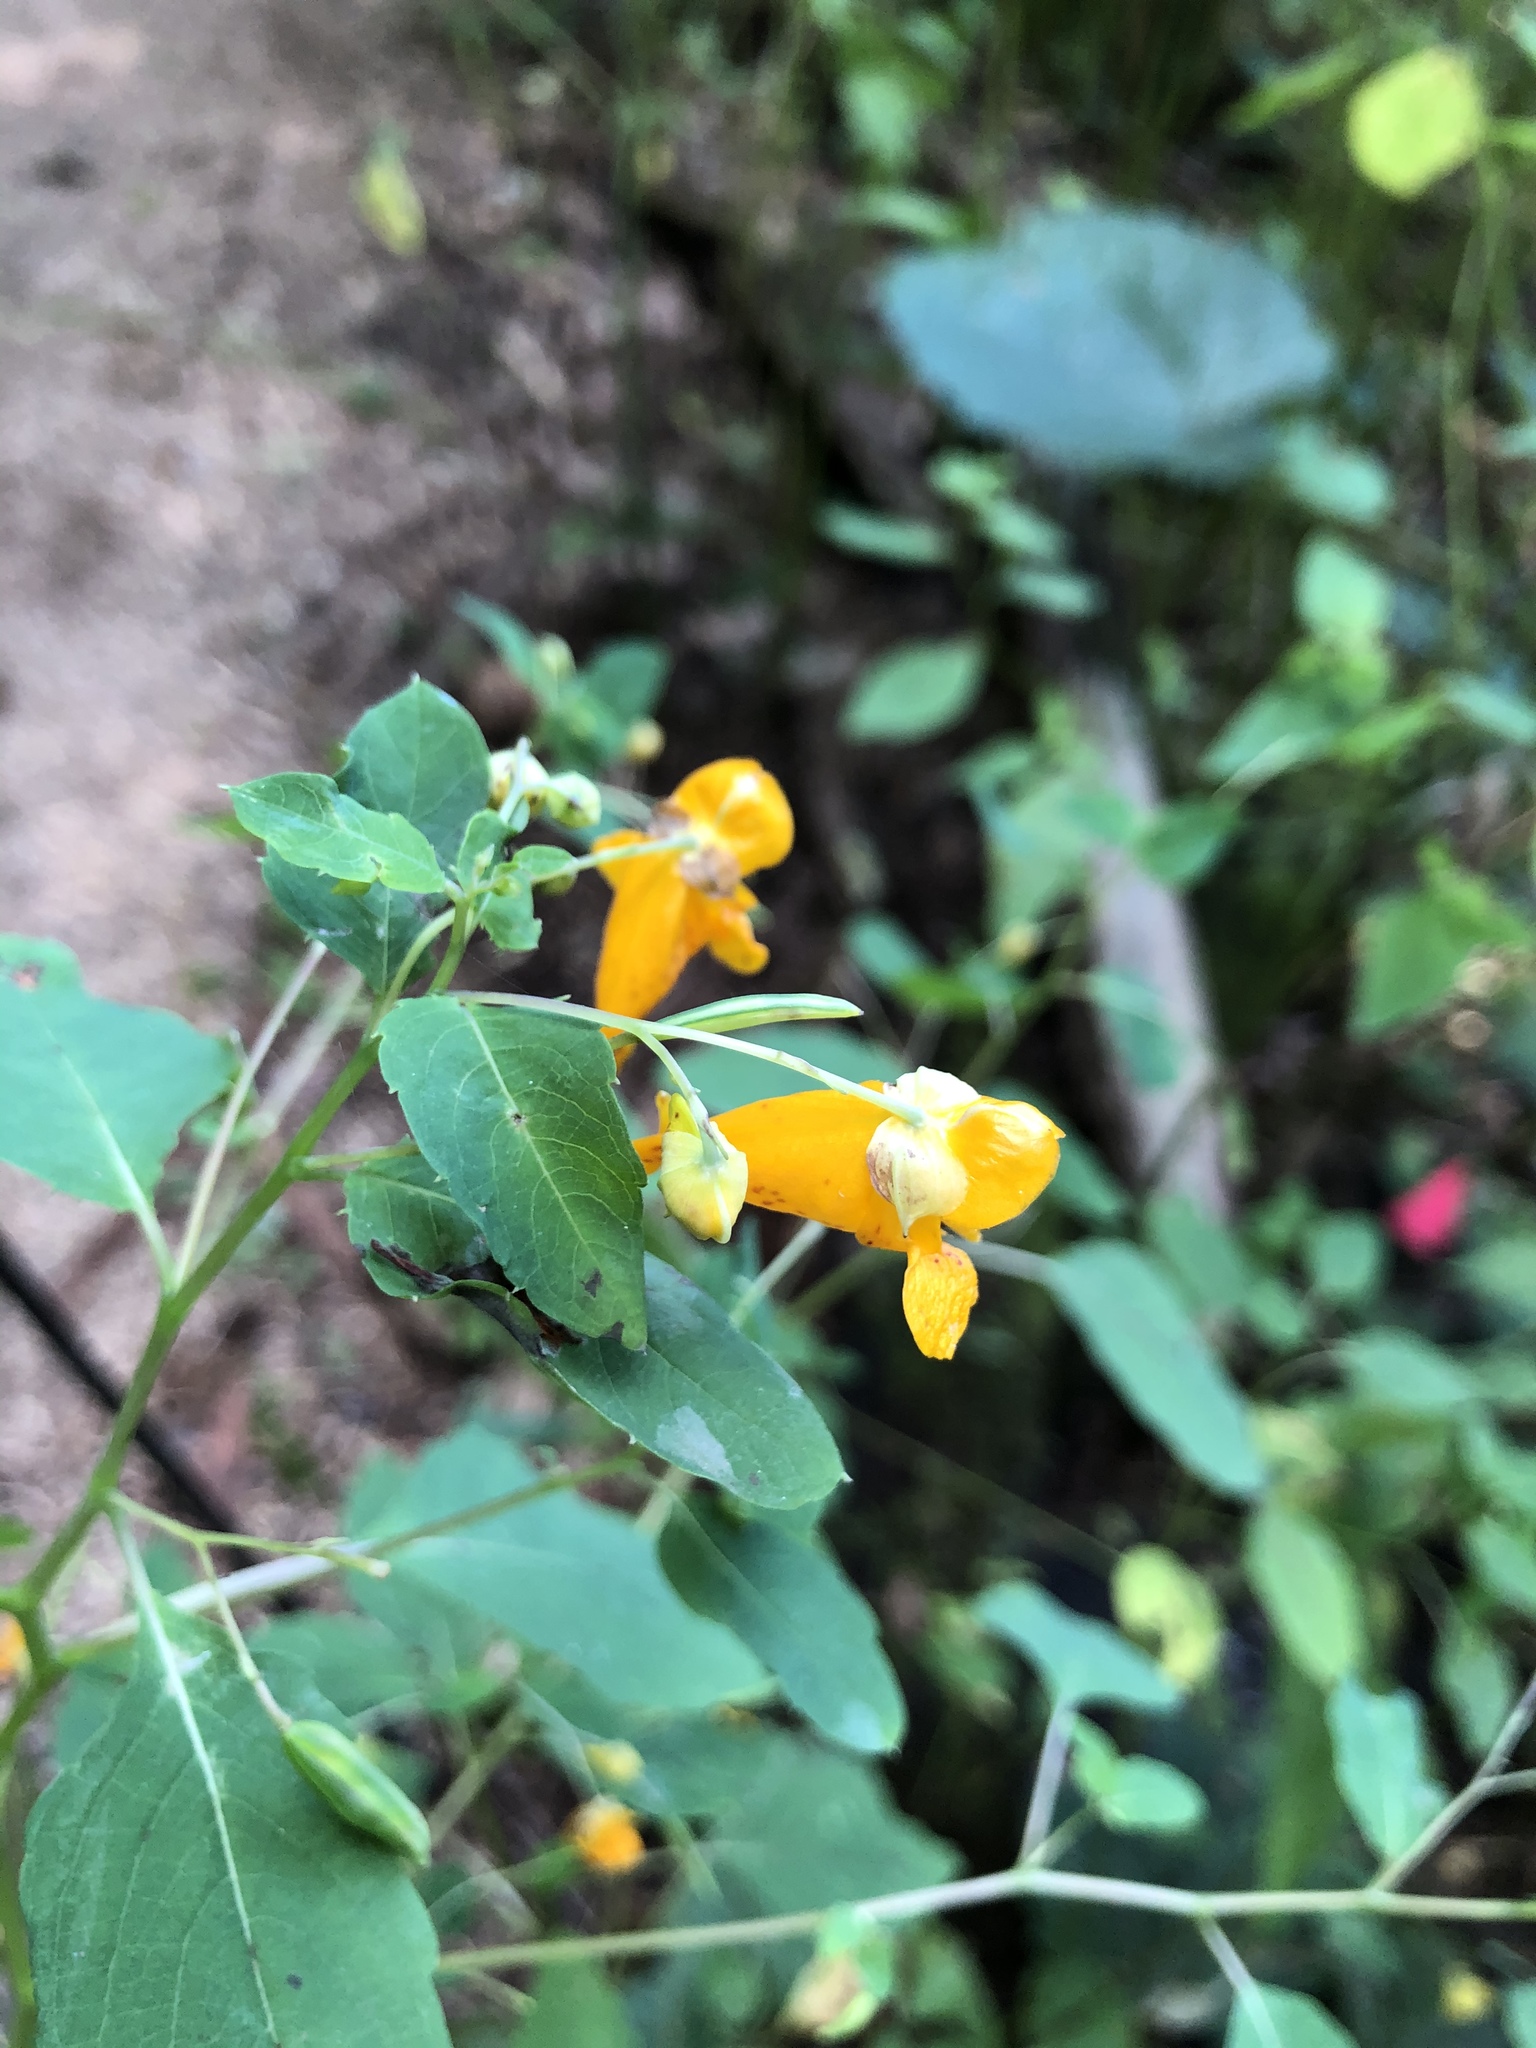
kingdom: Plantae
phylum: Tracheophyta
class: Magnoliopsida
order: Ericales
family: Balsaminaceae
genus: Impatiens
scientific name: Impatiens capensis
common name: Orange balsam
